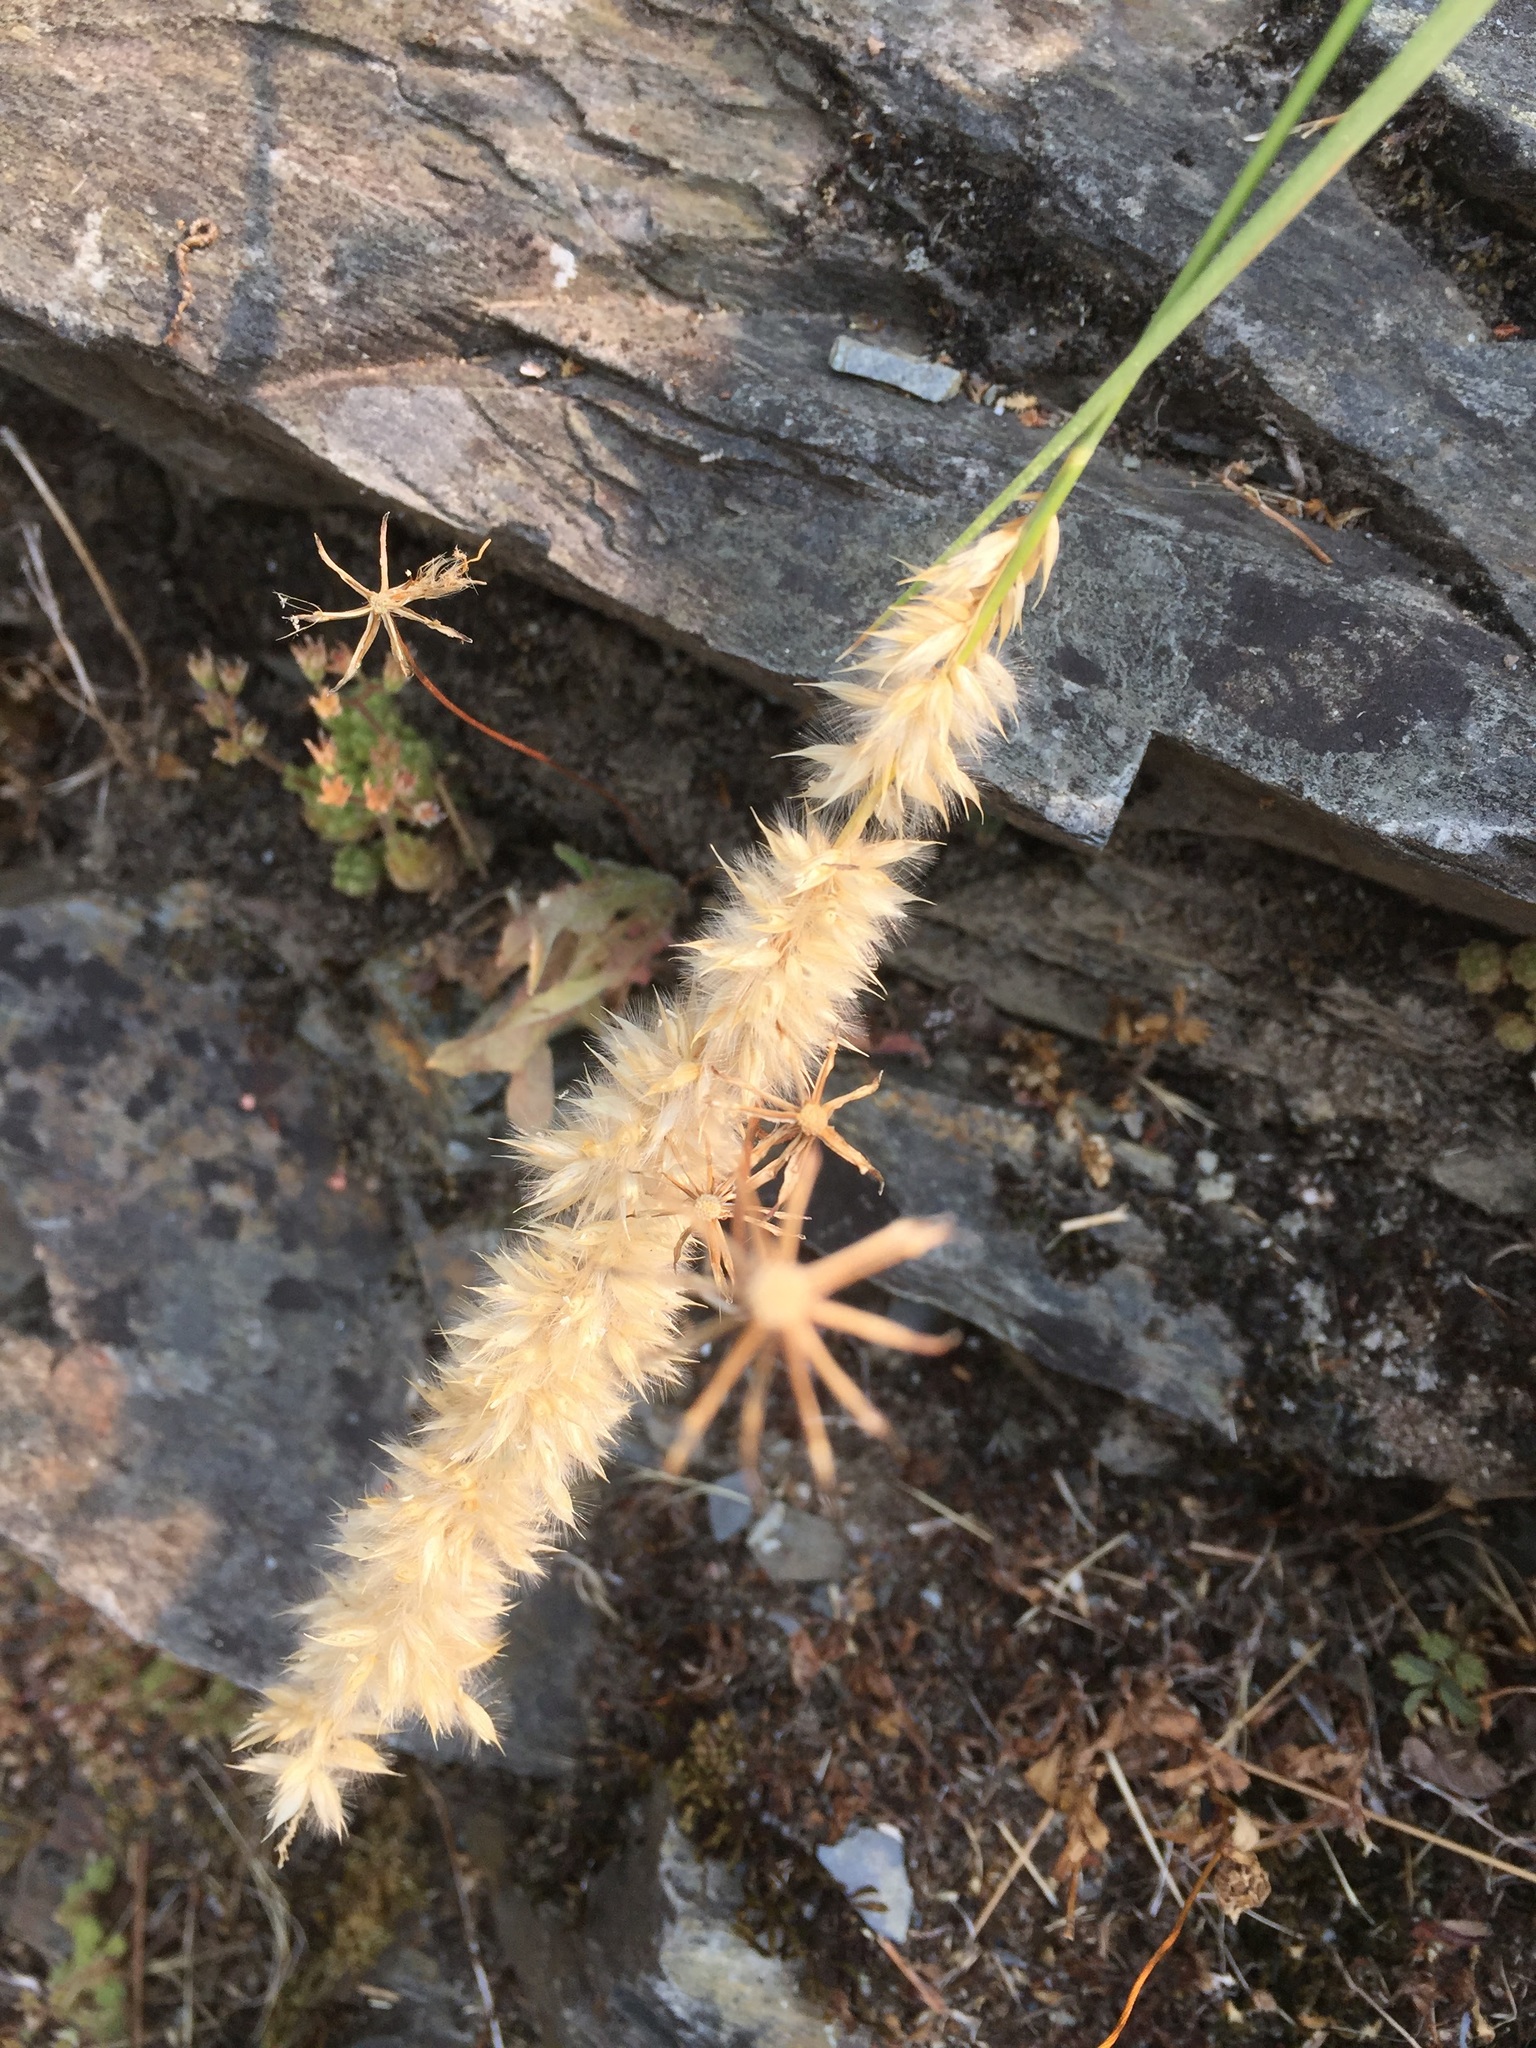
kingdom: Plantae
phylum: Tracheophyta
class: Liliopsida
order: Poales
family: Poaceae
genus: Melica
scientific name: Melica ciliata
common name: Hairy melicgrass
